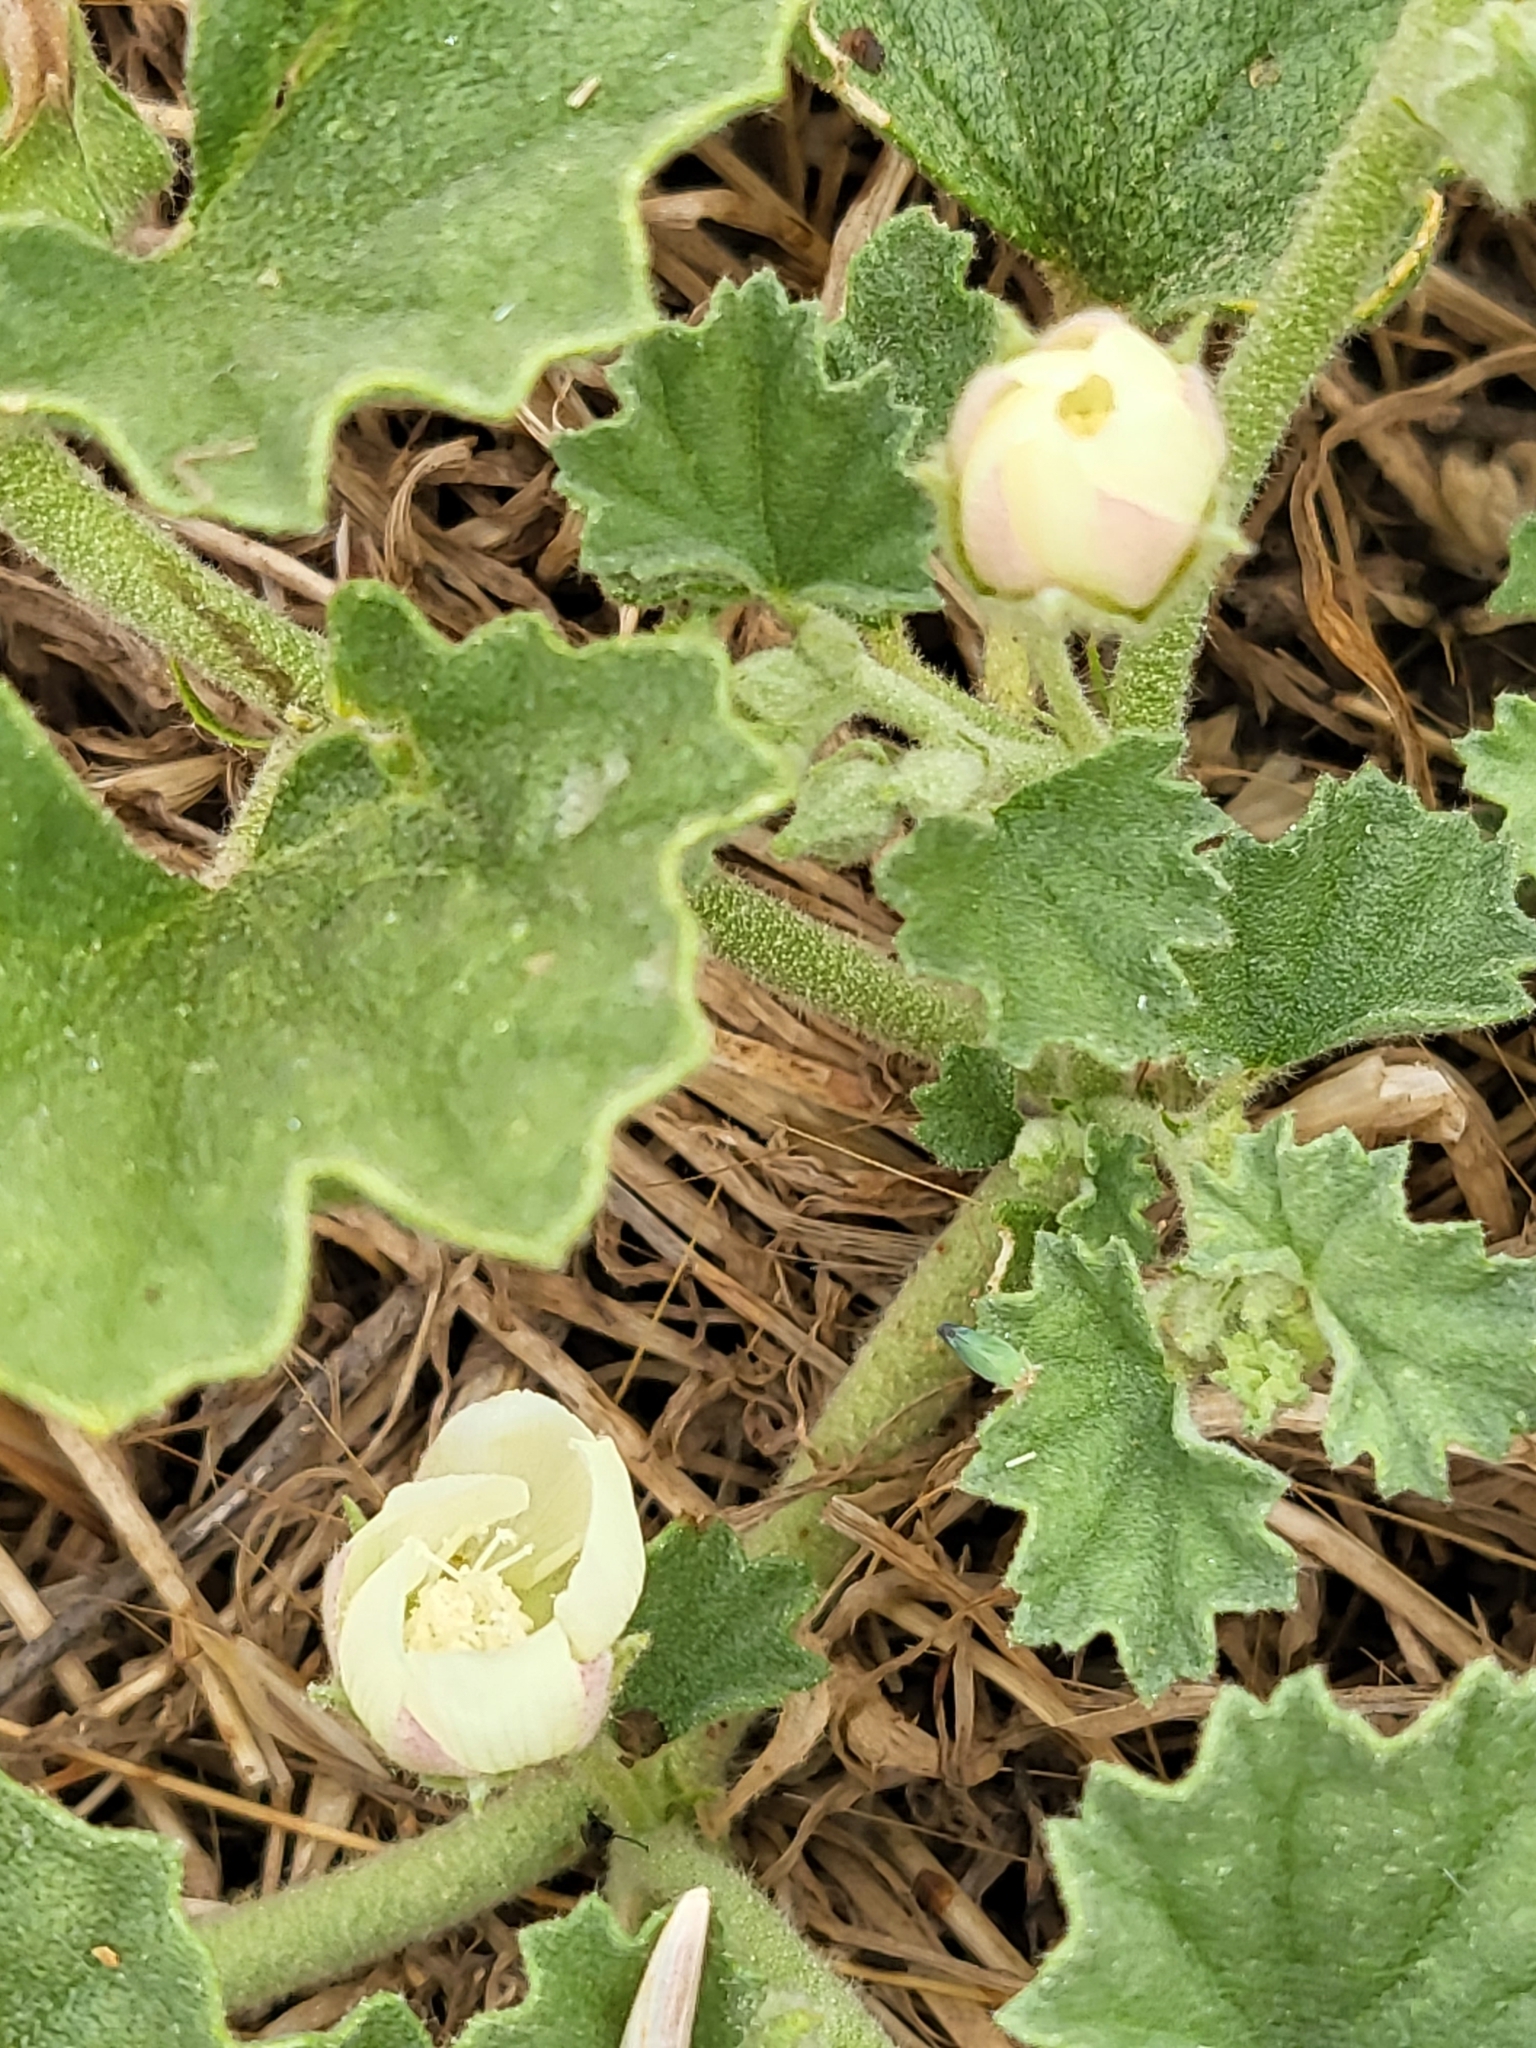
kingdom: Plantae
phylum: Tracheophyta
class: Magnoliopsida
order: Malvales
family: Malvaceae
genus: Malvella
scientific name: Malvella leprosa
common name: Alkali-mallow
